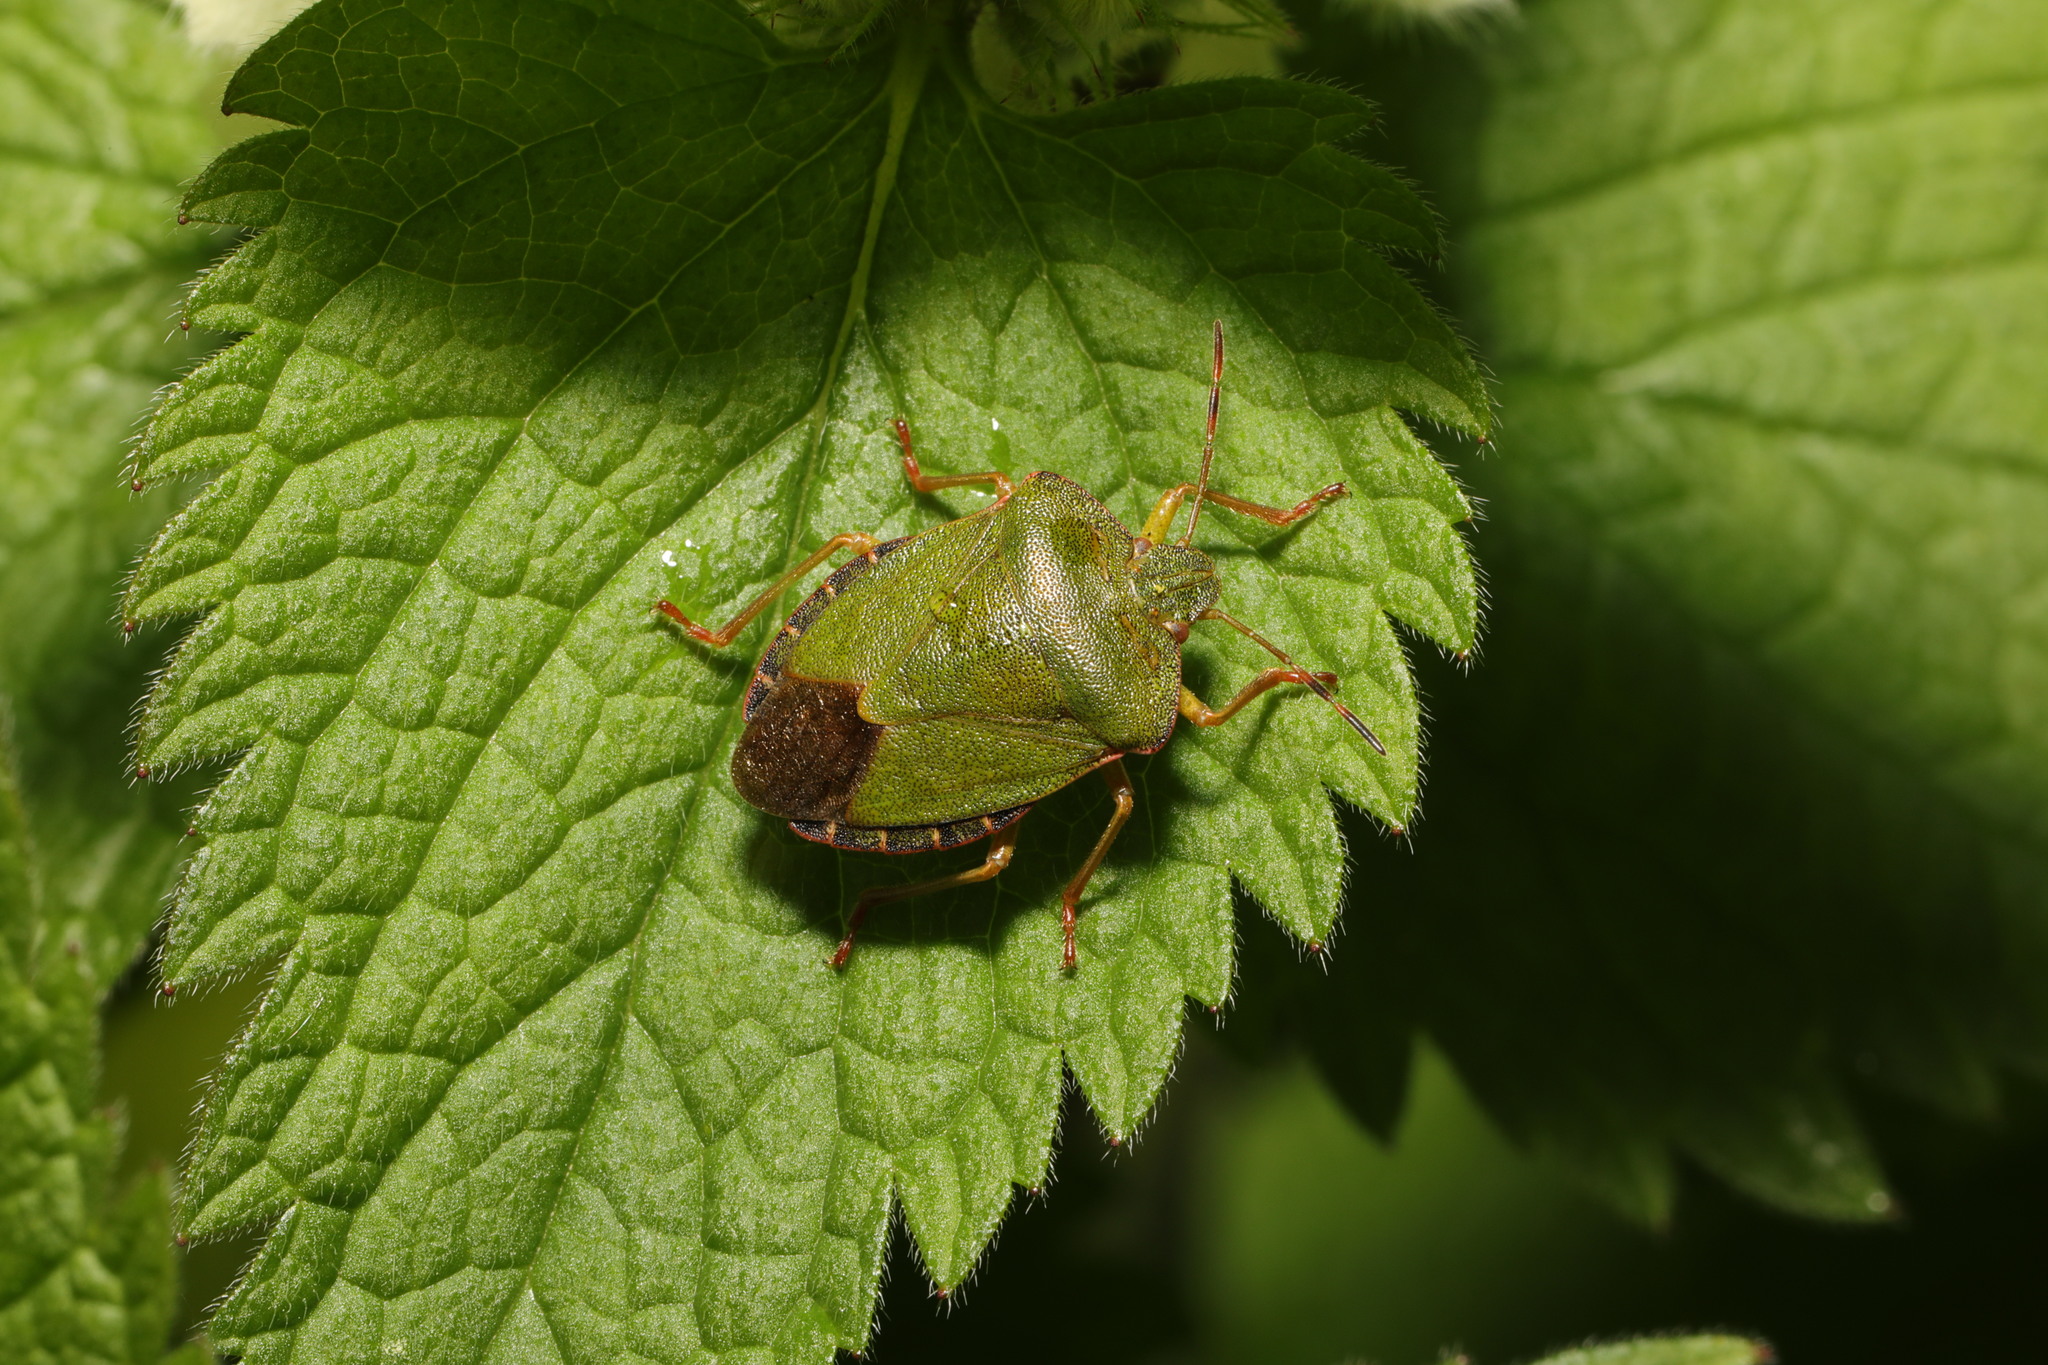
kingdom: Animalia
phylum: Arthropoda
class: Insecta
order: Hemiptera
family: Pentatomidae
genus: Palomena
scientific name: Palomena prasina
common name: Green shieldbug
